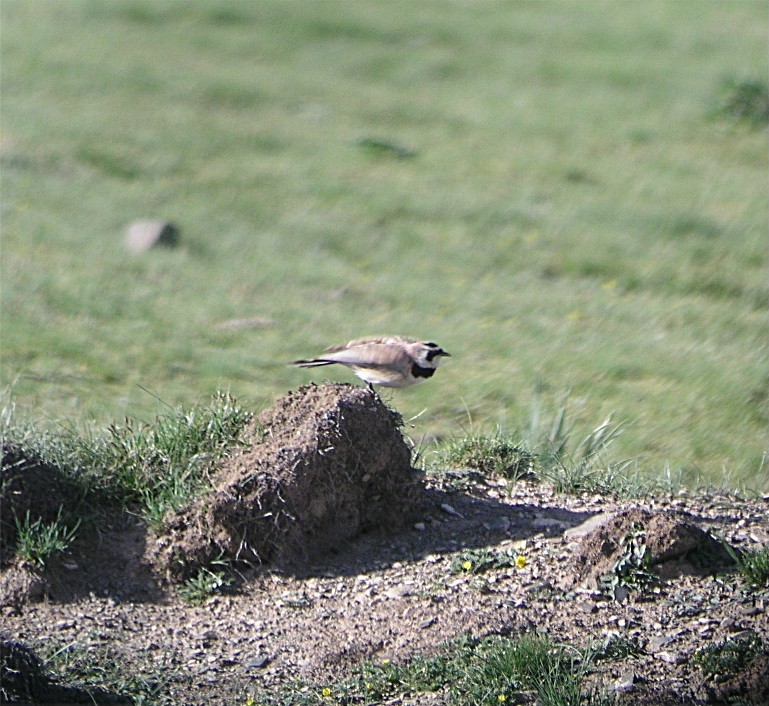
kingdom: Animalia
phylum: Chordata
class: Aves
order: Passeriformes
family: Alaudidae
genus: Eremophila
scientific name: Eremophila alpestris
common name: Horned lark
